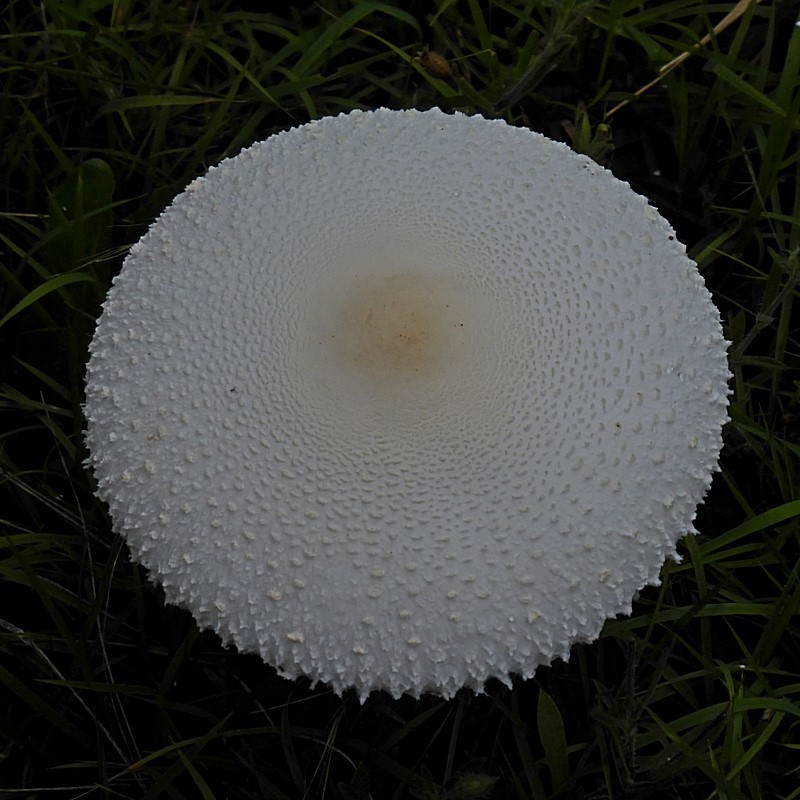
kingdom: Fungi
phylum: Basidiomycota
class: Agaricomycetes
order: Agaricales
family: Agaricaceae
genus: Macrolepiota
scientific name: Macrolepiota dolichaula
